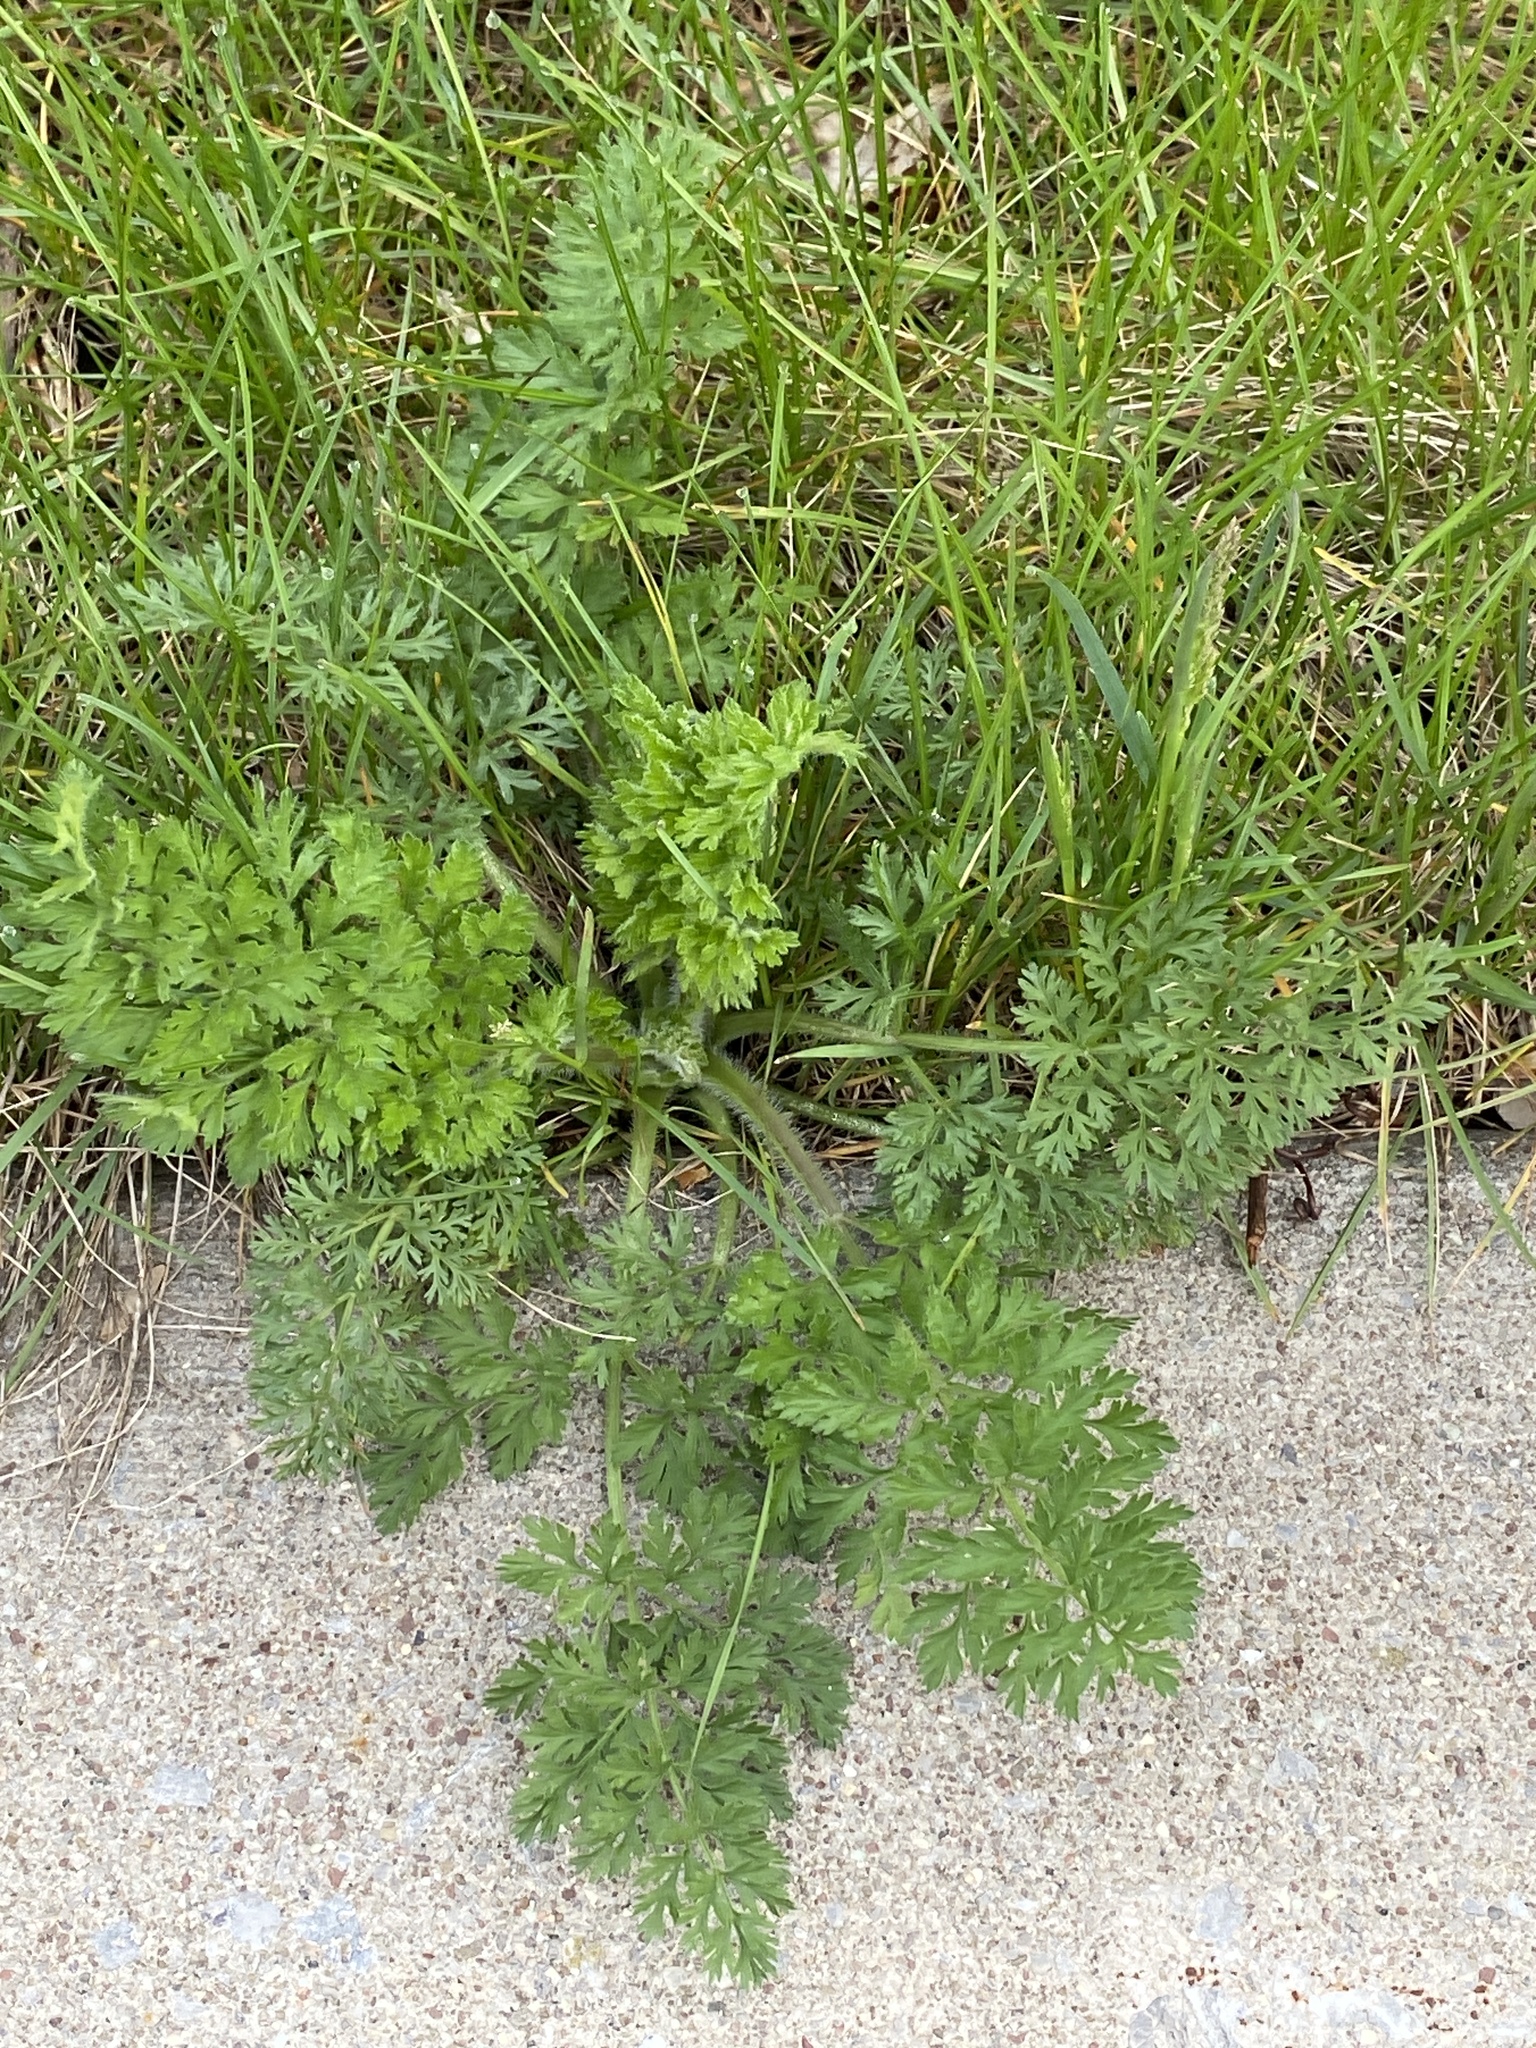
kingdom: Plantae
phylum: Tracheophyta
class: Magnoliopsida
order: Apiales
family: Apiaceae
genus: Daucus
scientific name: Daucus carota
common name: Wild carrot
